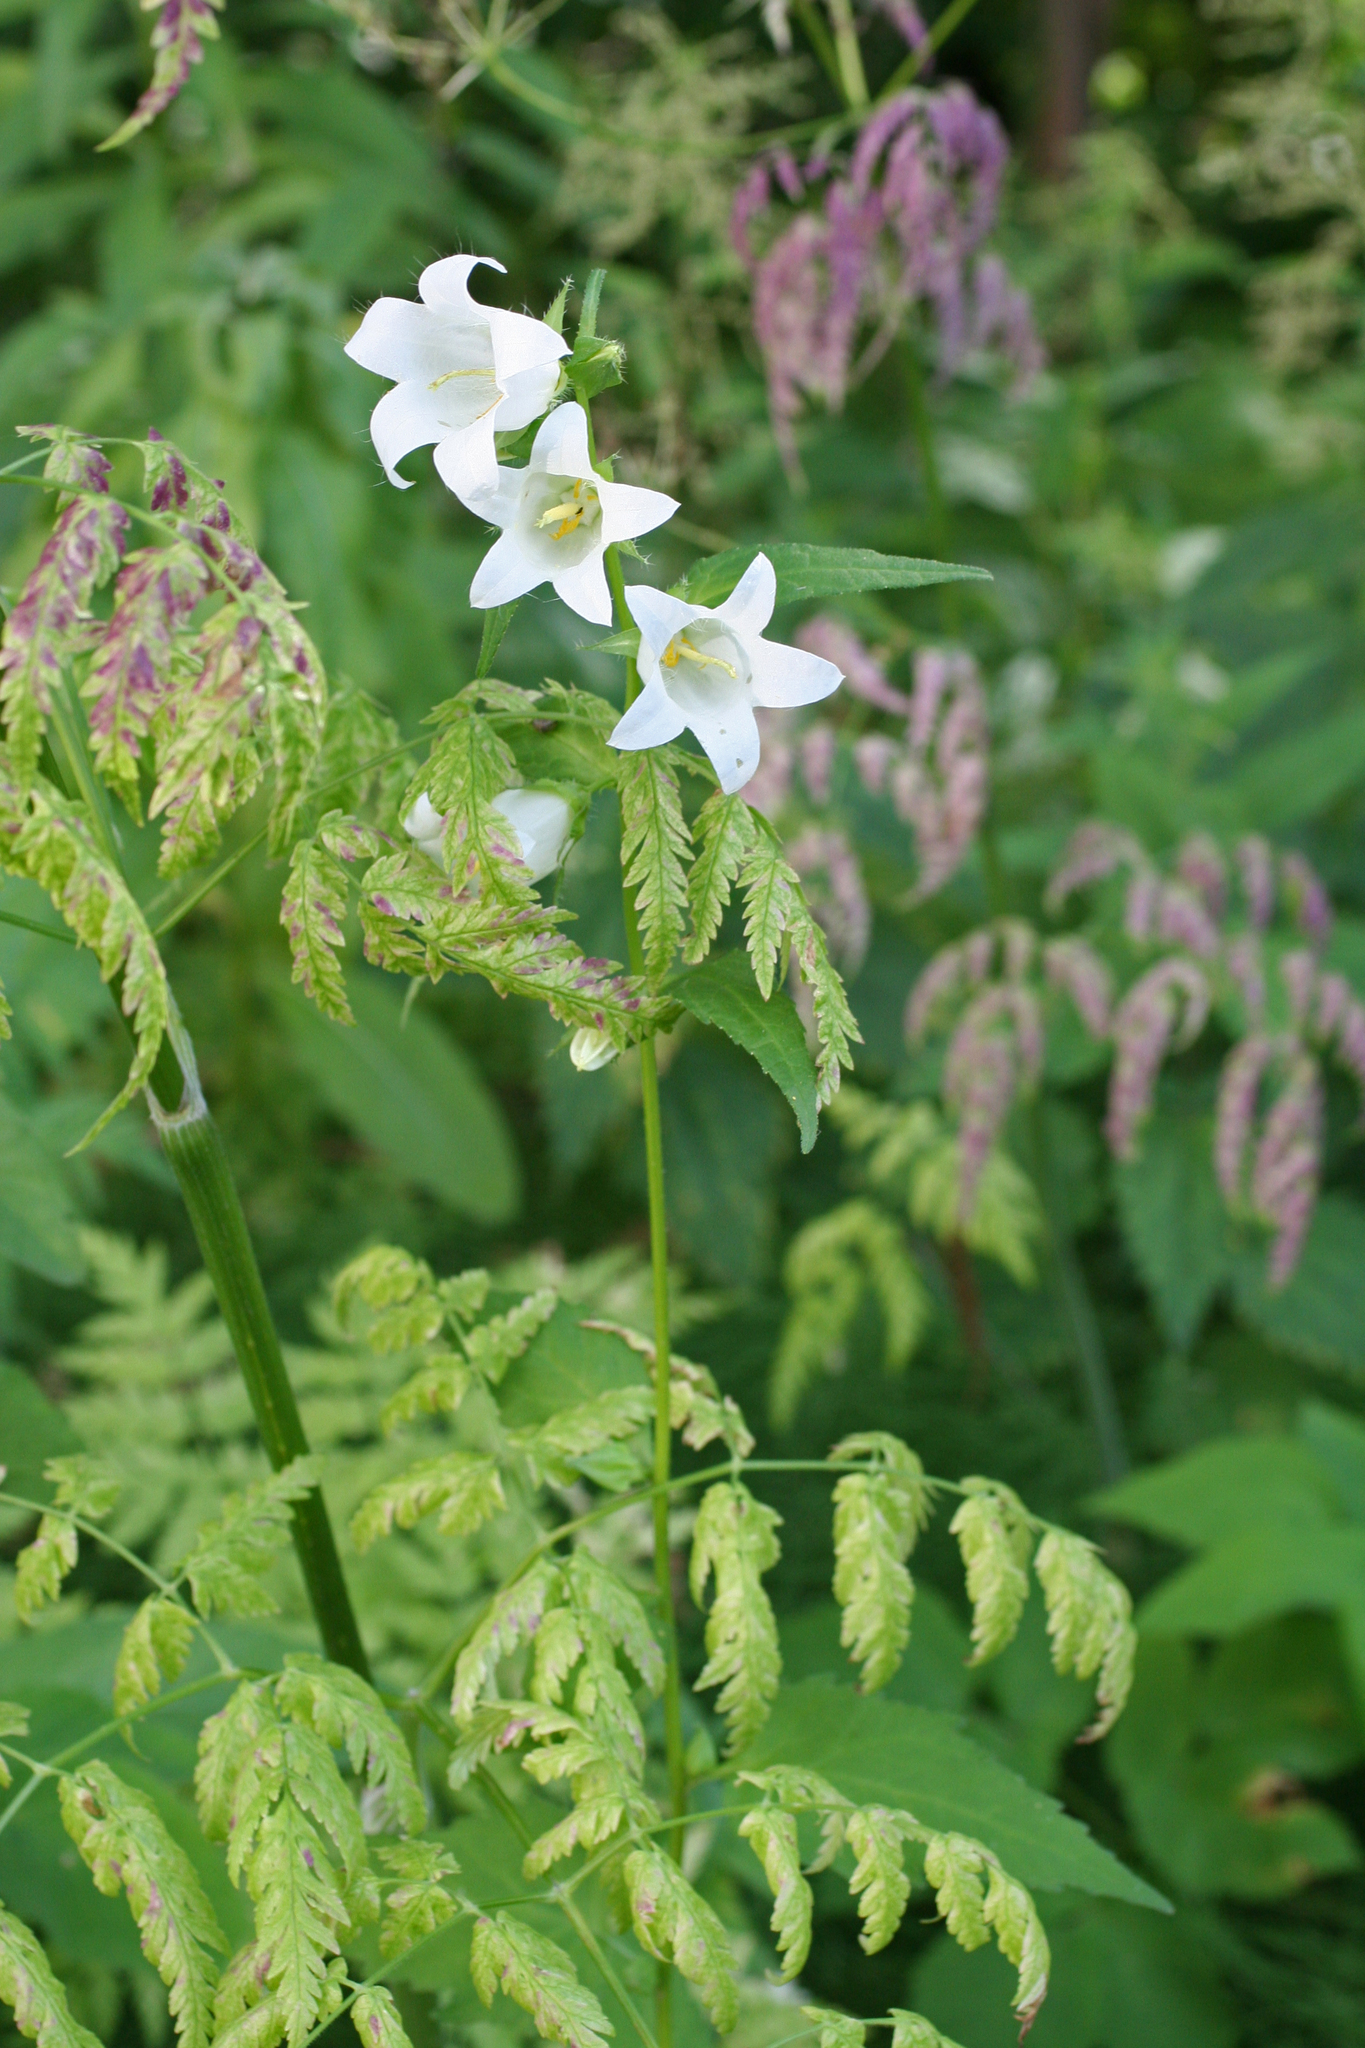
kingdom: Plantae
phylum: Tracheophyta
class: Magnoliopsida
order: Asterales
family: Campanulaceae
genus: Campanula
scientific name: Campanula trachelium
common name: Nettle-leaved bellflower
